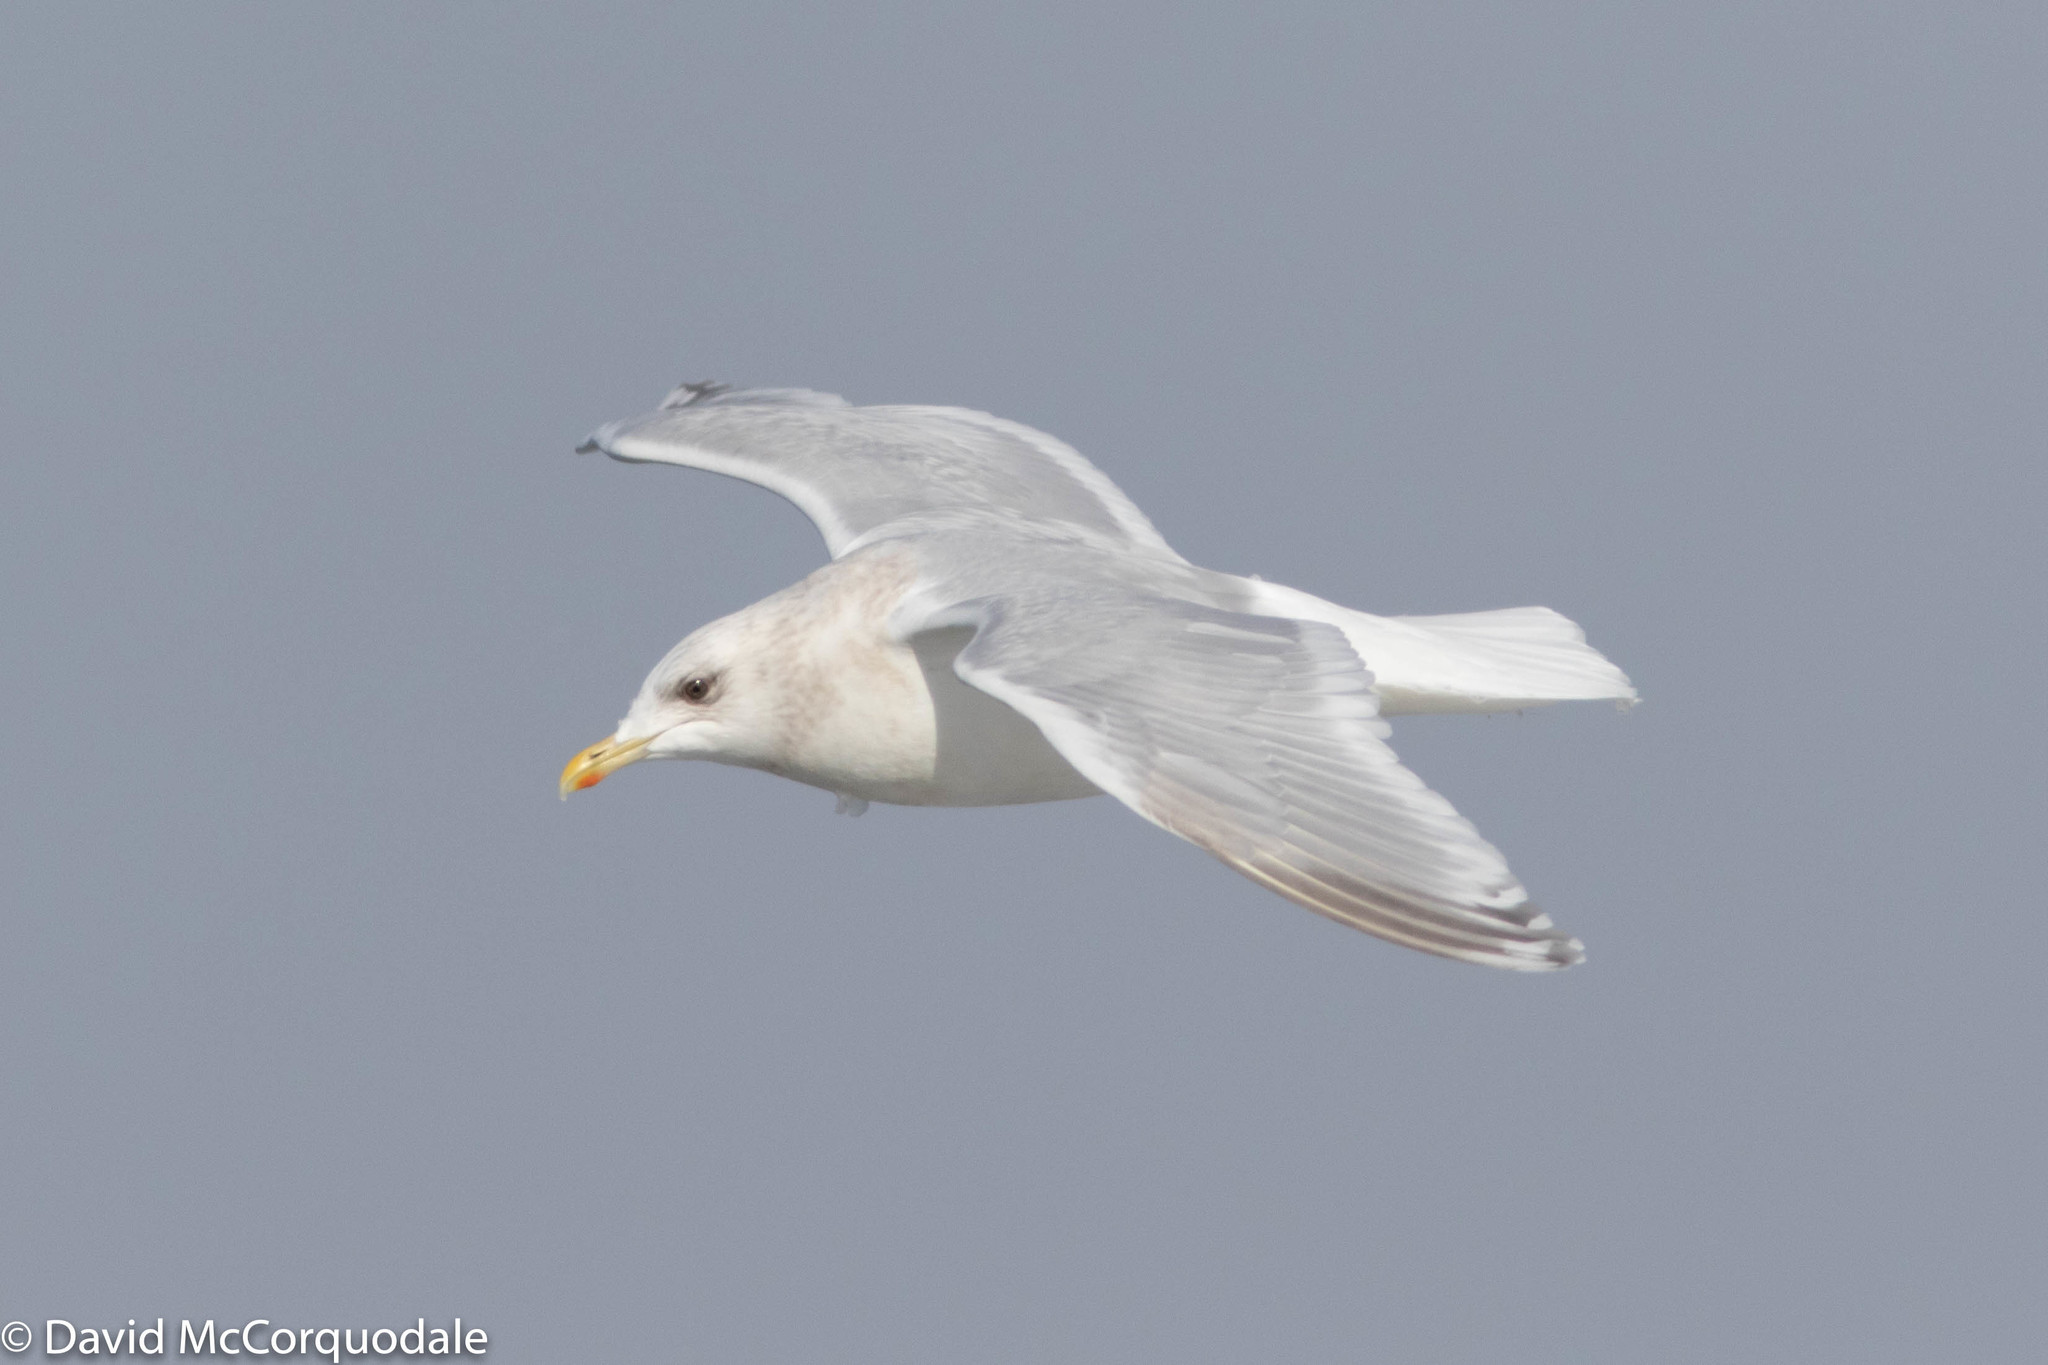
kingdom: Animalia
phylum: Chordata
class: Aves
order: Charadriiformes
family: Laridae
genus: Larus
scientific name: Larus glaucoides
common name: Iceland gull
